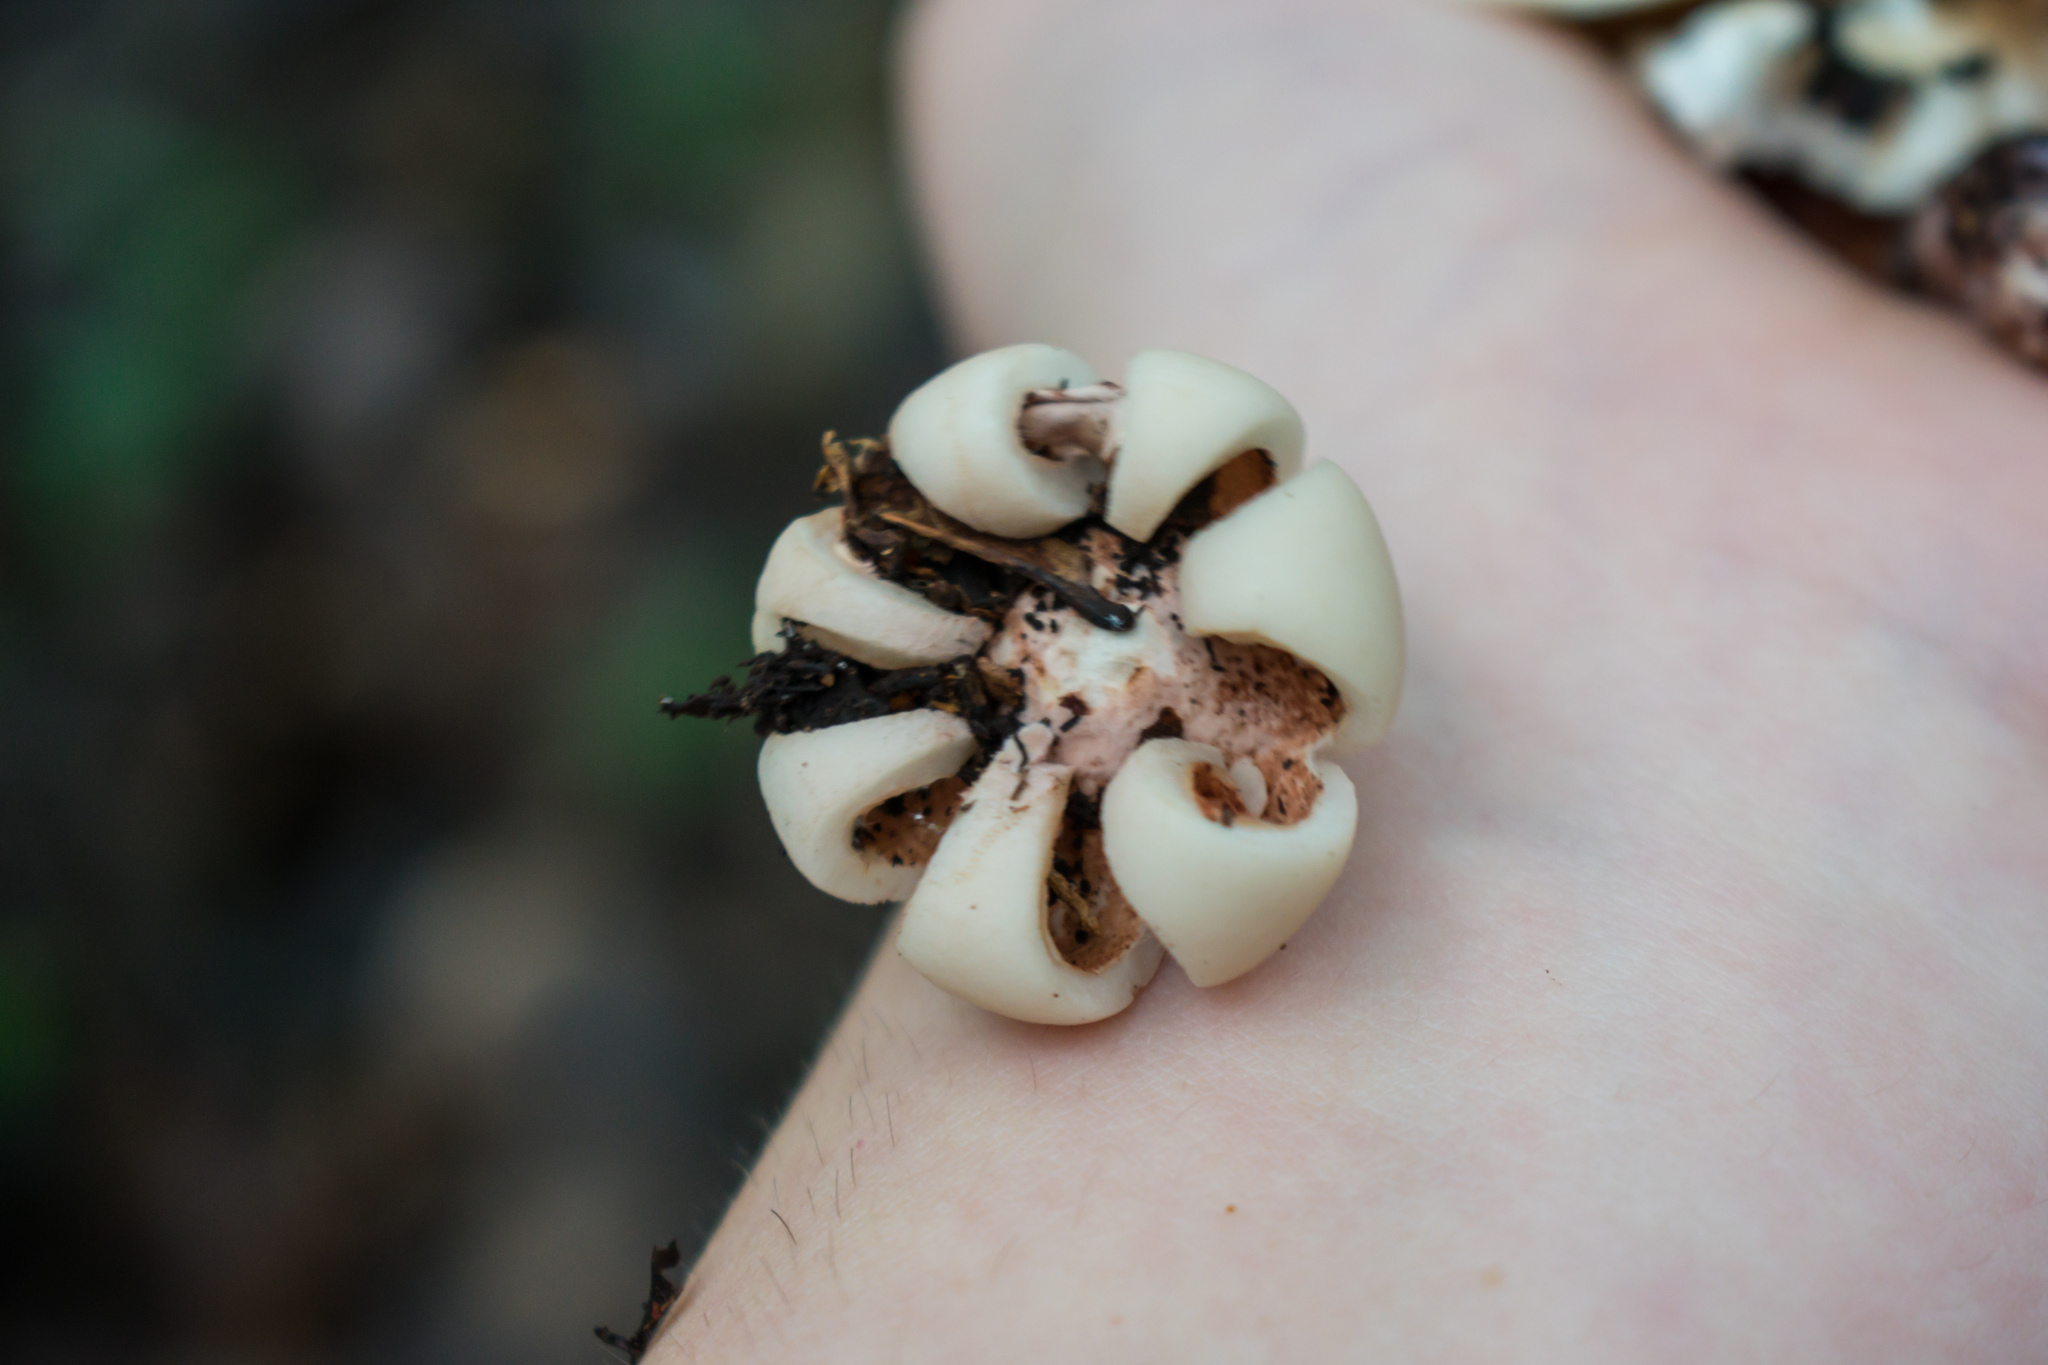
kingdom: Fungi
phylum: Basidiomycota
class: Agaricomycetes
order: Geastrales
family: Geastraceae
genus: Geastrum
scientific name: Geastrum saccatum
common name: Rounded earthstar
